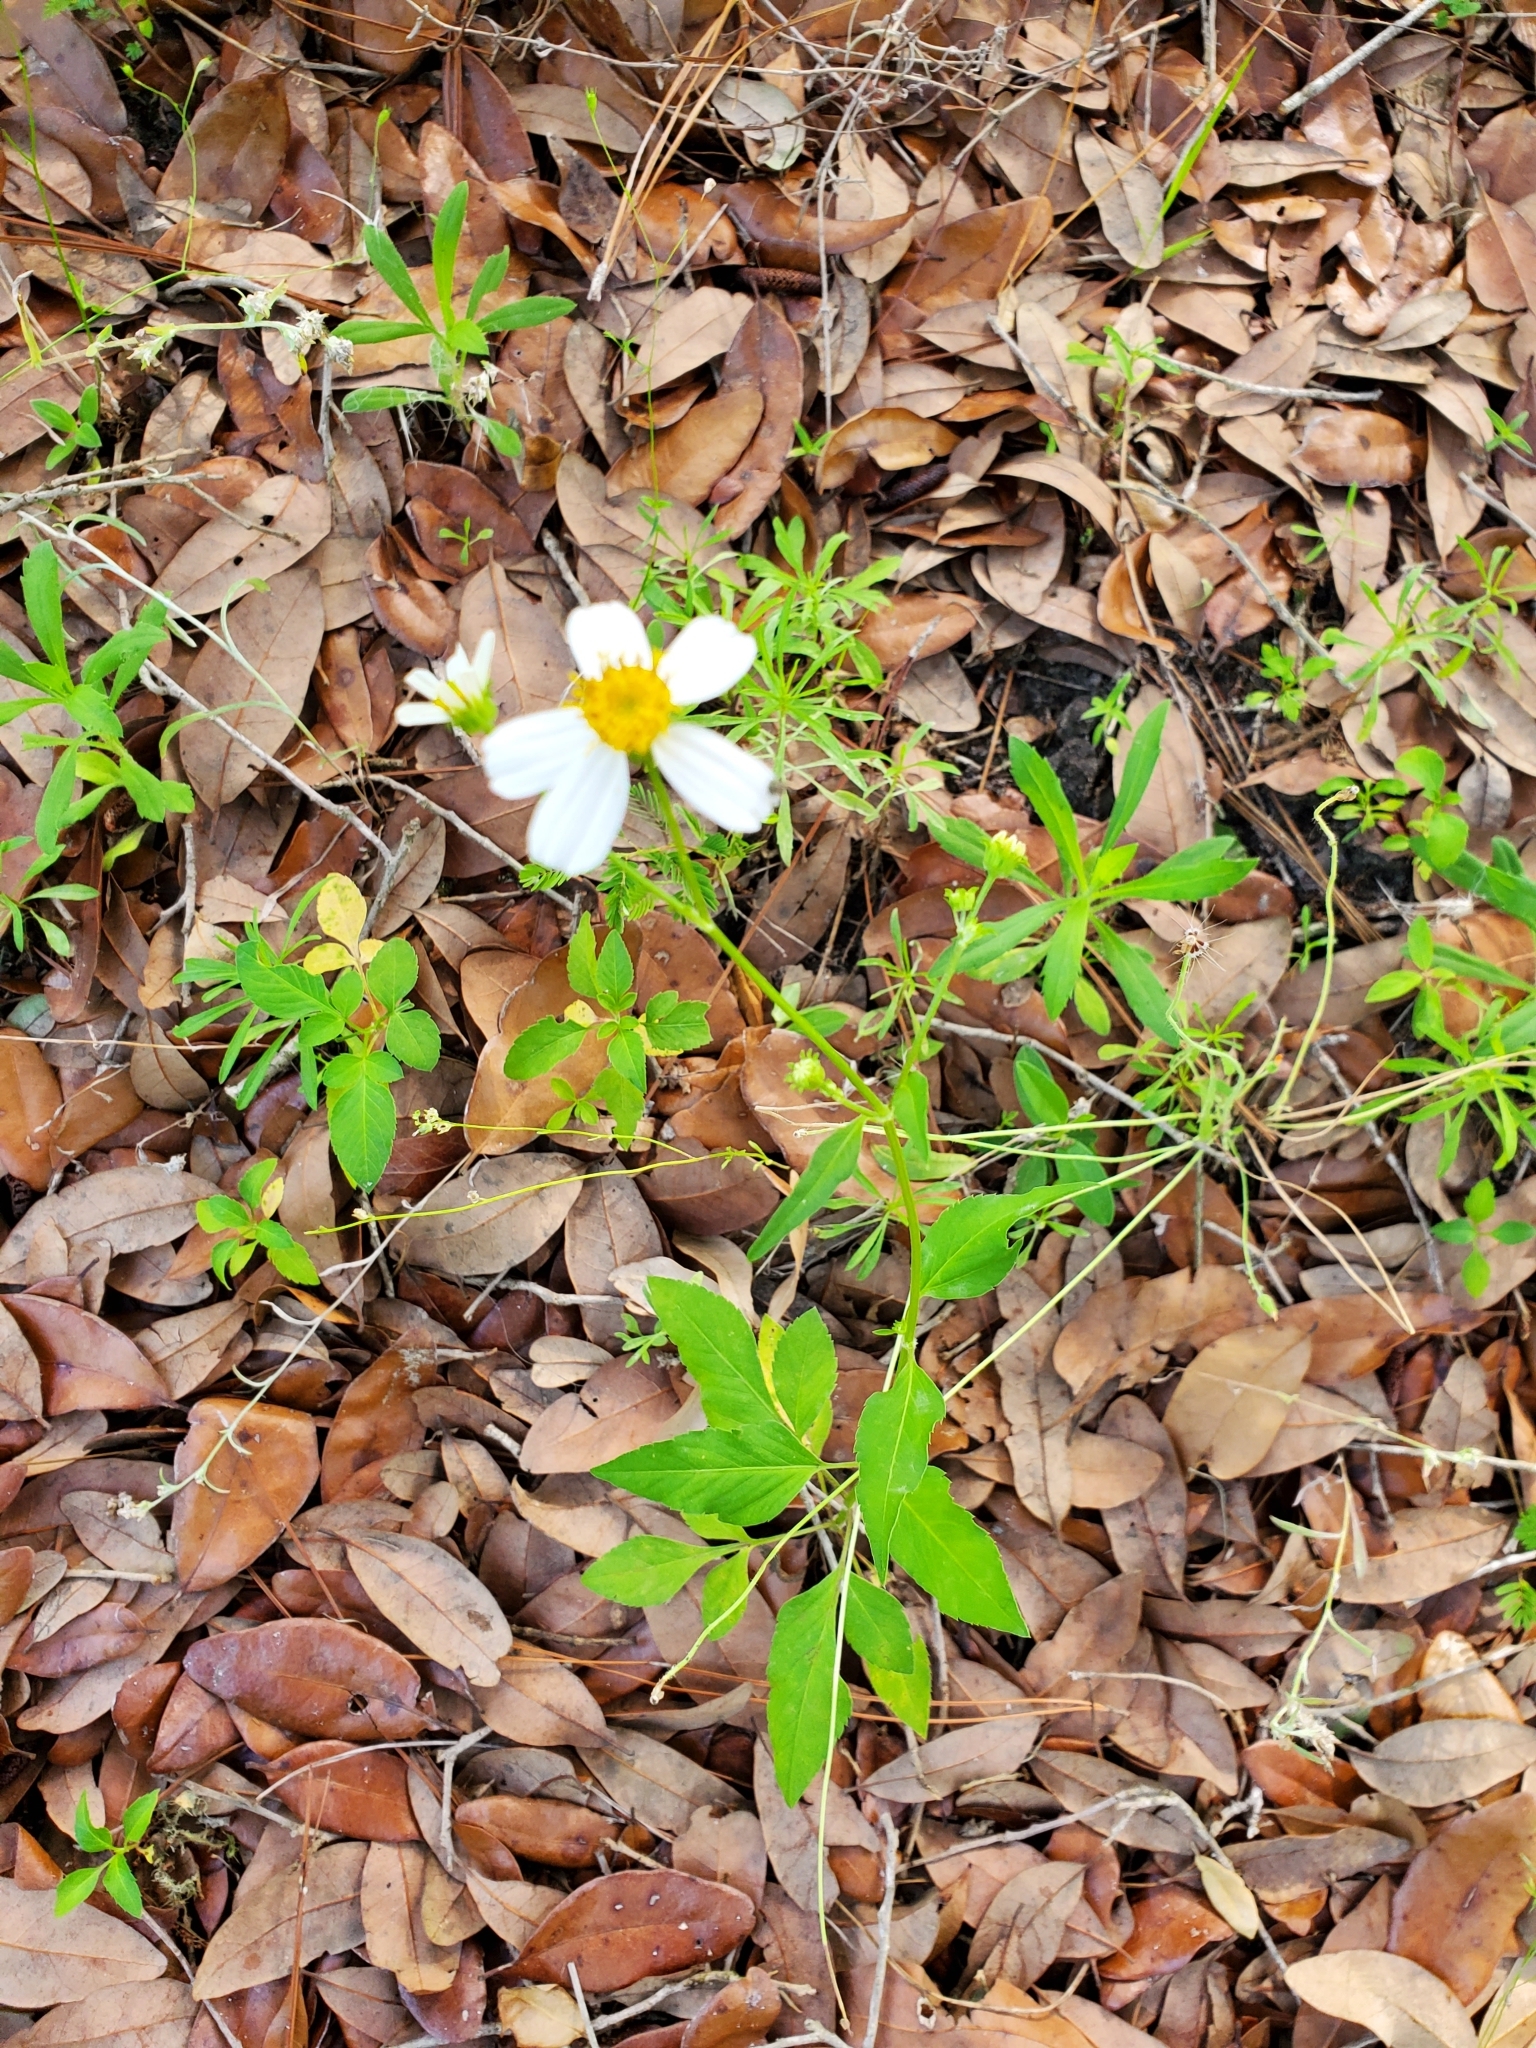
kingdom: Plantae
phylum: Tracheophyta
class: Magnoliopsida
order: Asterales
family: Asteraceae
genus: Bidens
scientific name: Bidens alba
